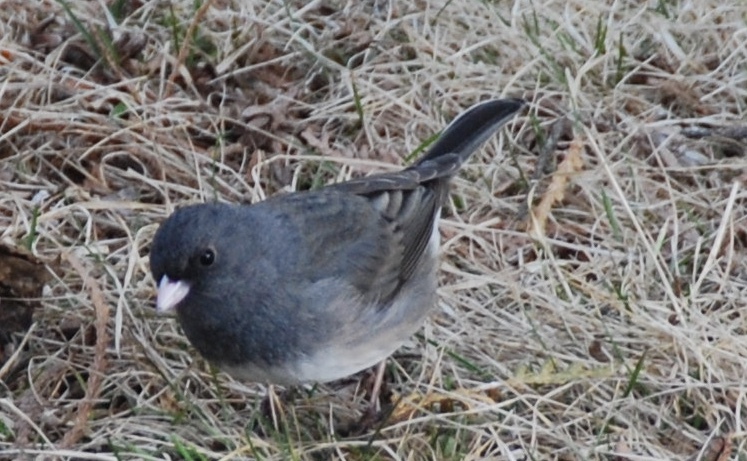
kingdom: Animalia
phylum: Chordata
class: Aves
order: Passeriformes
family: Passerellidae
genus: Junco
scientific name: Junco hyemalis
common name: Dark-eyed junco
